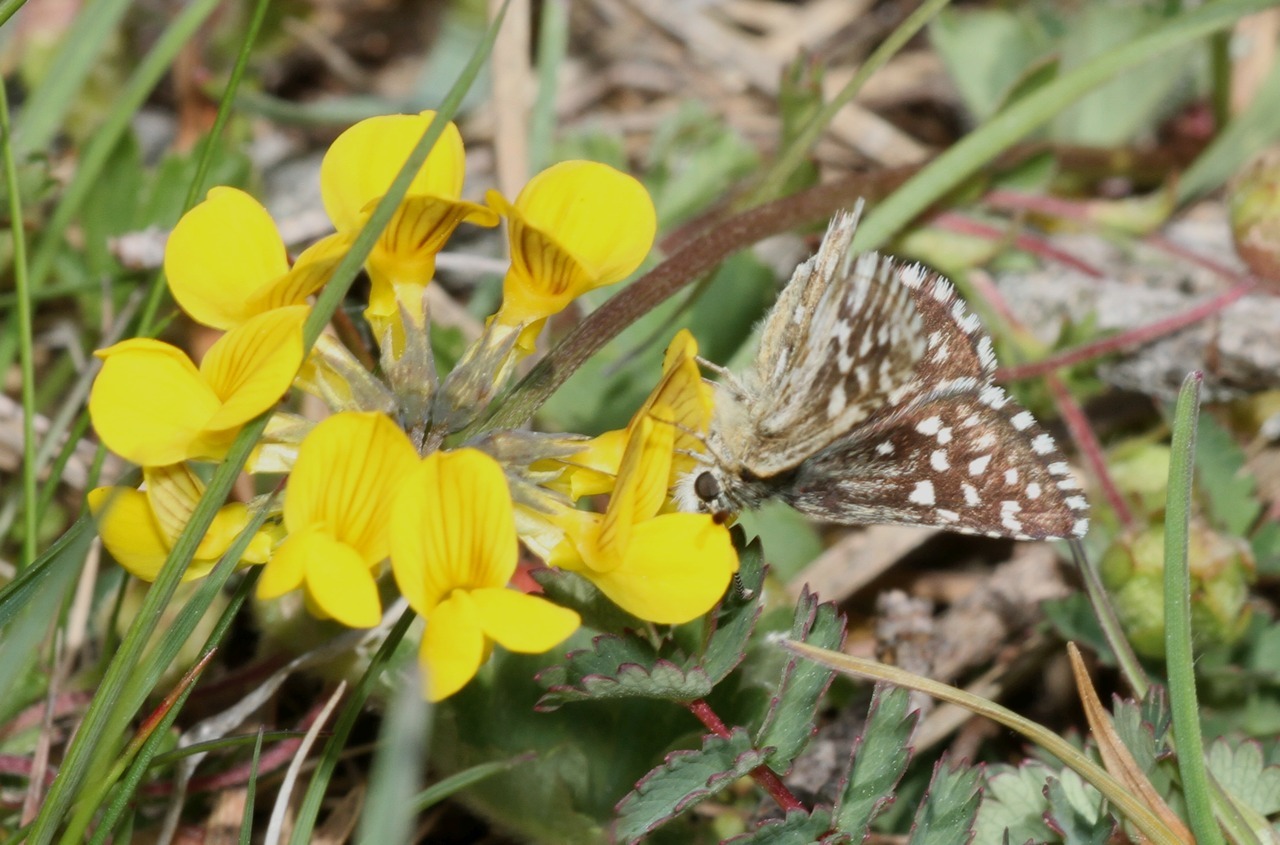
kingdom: Animalia
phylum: Arthropoda
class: Insecta
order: Lepidoptera
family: Hesperiidae
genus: Pyrgus
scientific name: Pyrgus malvae
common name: Grizzled skipper
